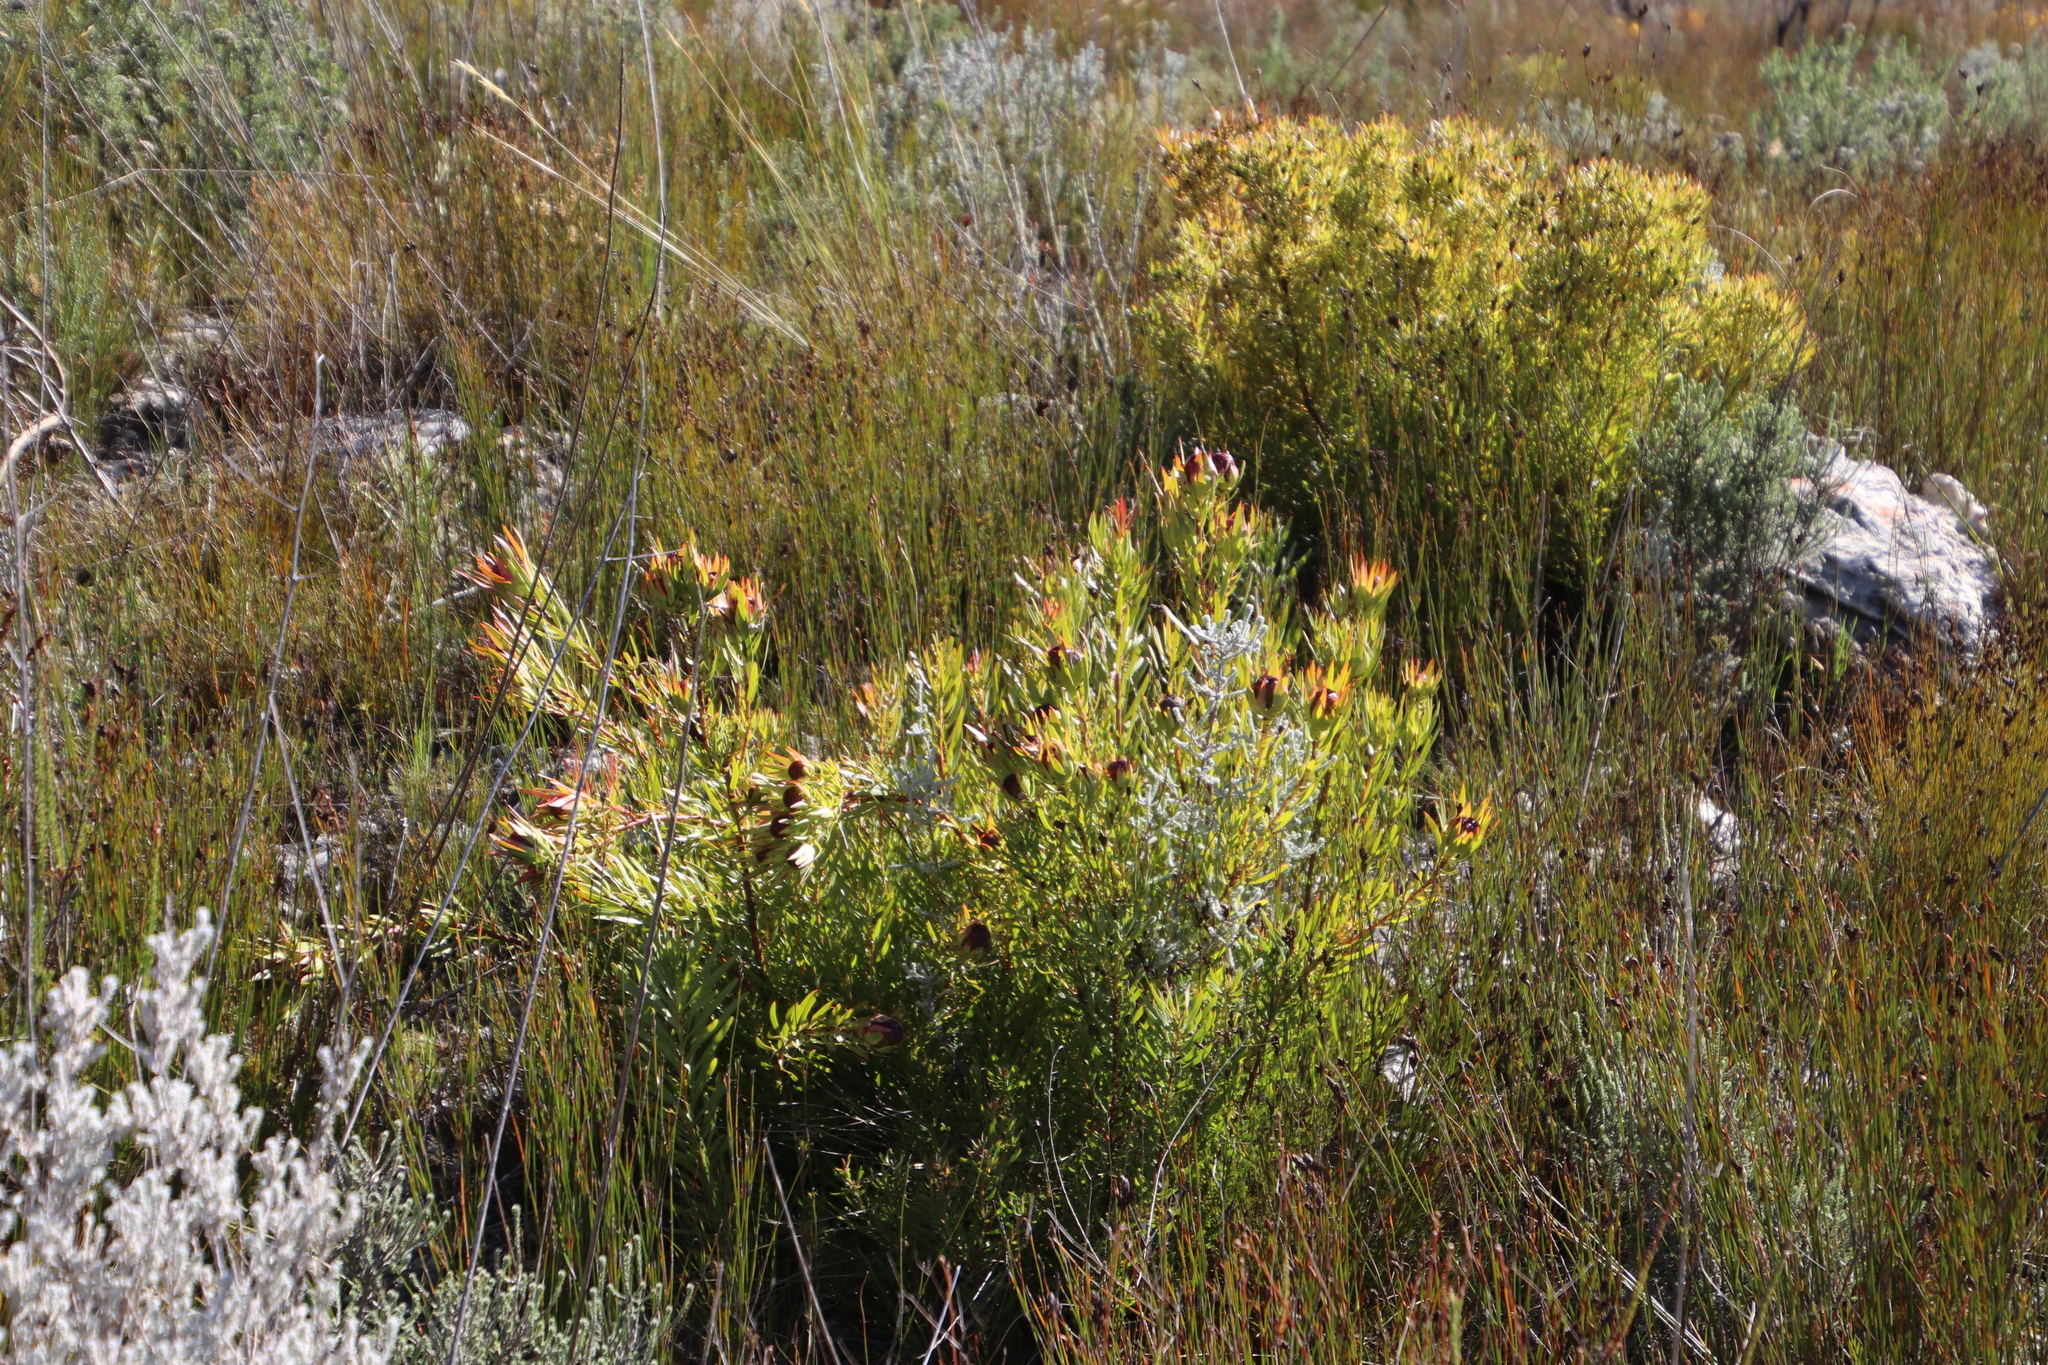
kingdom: Plantae
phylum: Tracheophyta
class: Magnoliopsida
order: Proteales
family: Proteaceae
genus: Leucadendron
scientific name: Leucadendron spissifolium
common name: Spear-leaf conebush
